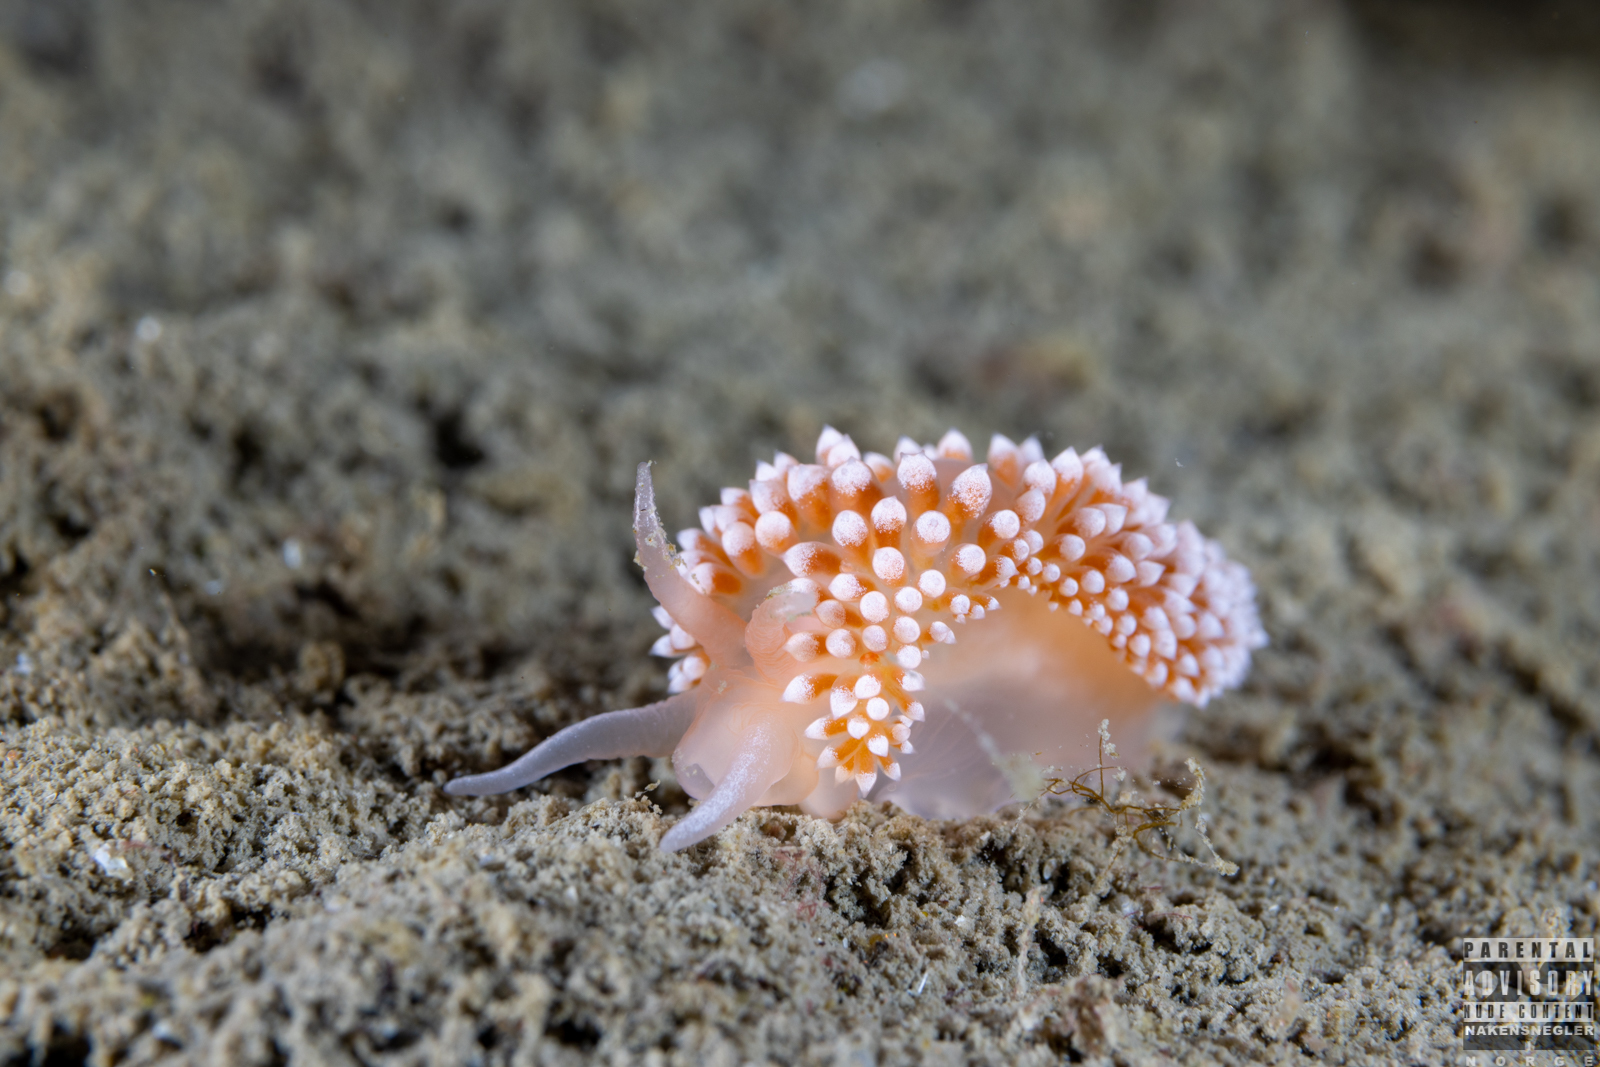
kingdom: Animalia
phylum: Mollusca
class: Gastropoda
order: Nudibranchia
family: Coryphellidae
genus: Coryphella
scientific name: Coryphella verrucosa
